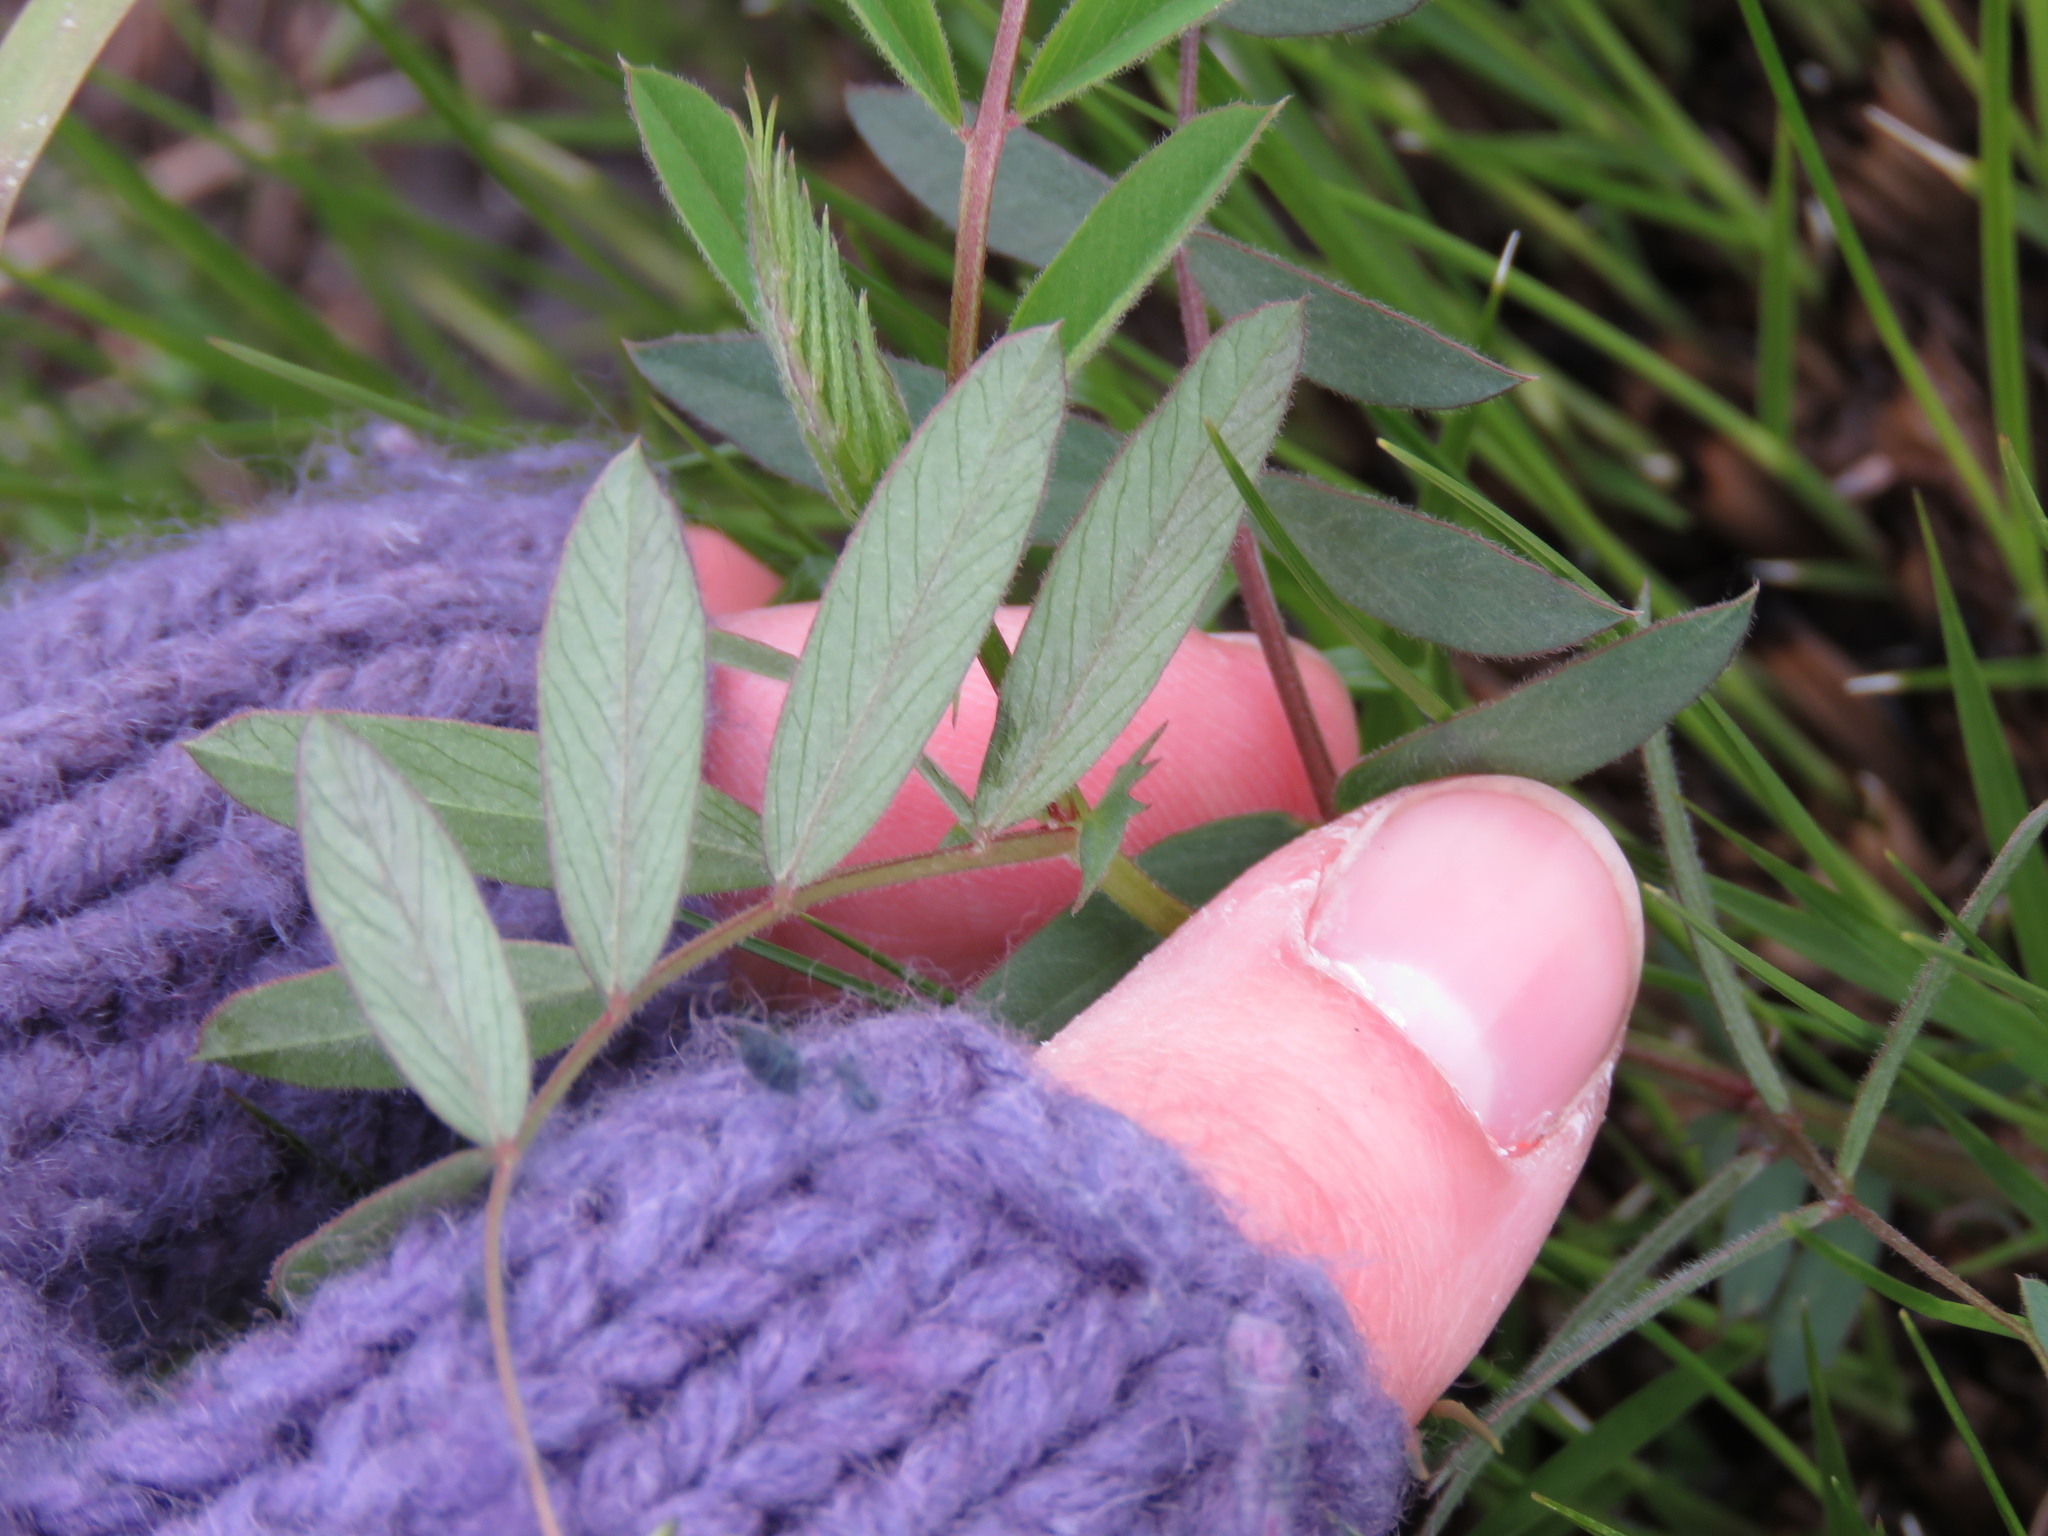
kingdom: Plantae
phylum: Tracheophyta
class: Magnoliopsida
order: Fabales
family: Fabaceae
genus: Vicia
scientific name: Vicia americana
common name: American vetch
